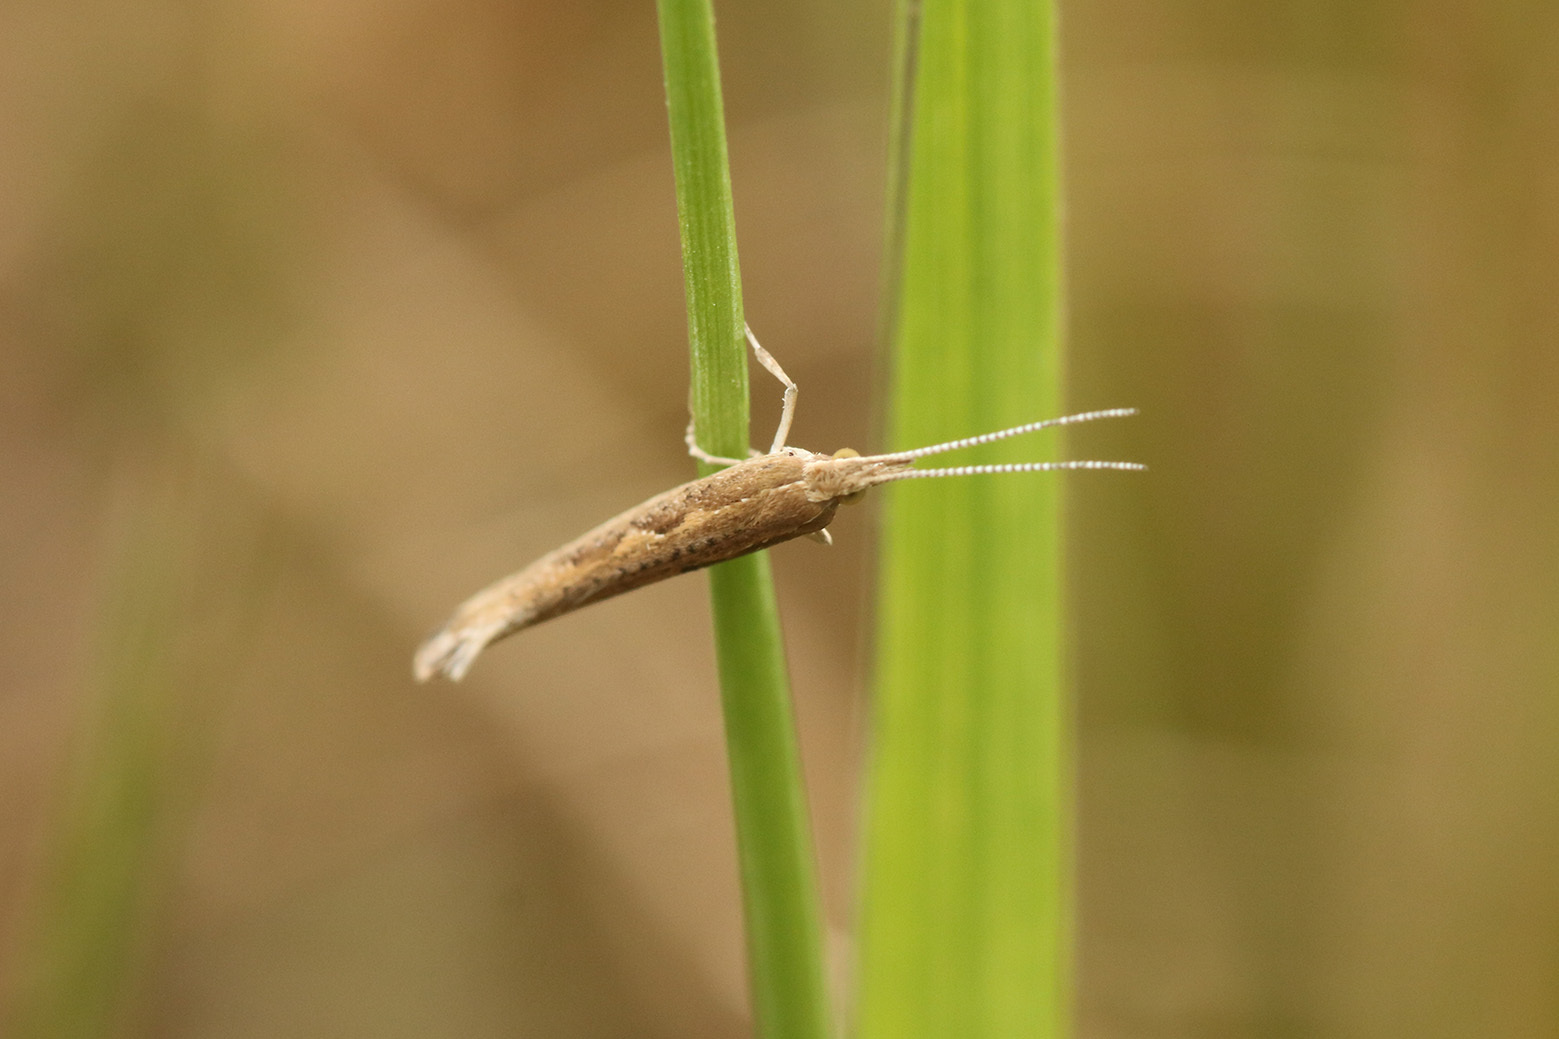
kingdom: Animalia
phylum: Arthropoda
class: Insecta
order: Lepidoptera
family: Plutellidae
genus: Plutella
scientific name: Plutella xylostella
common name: Diamond-back moth
